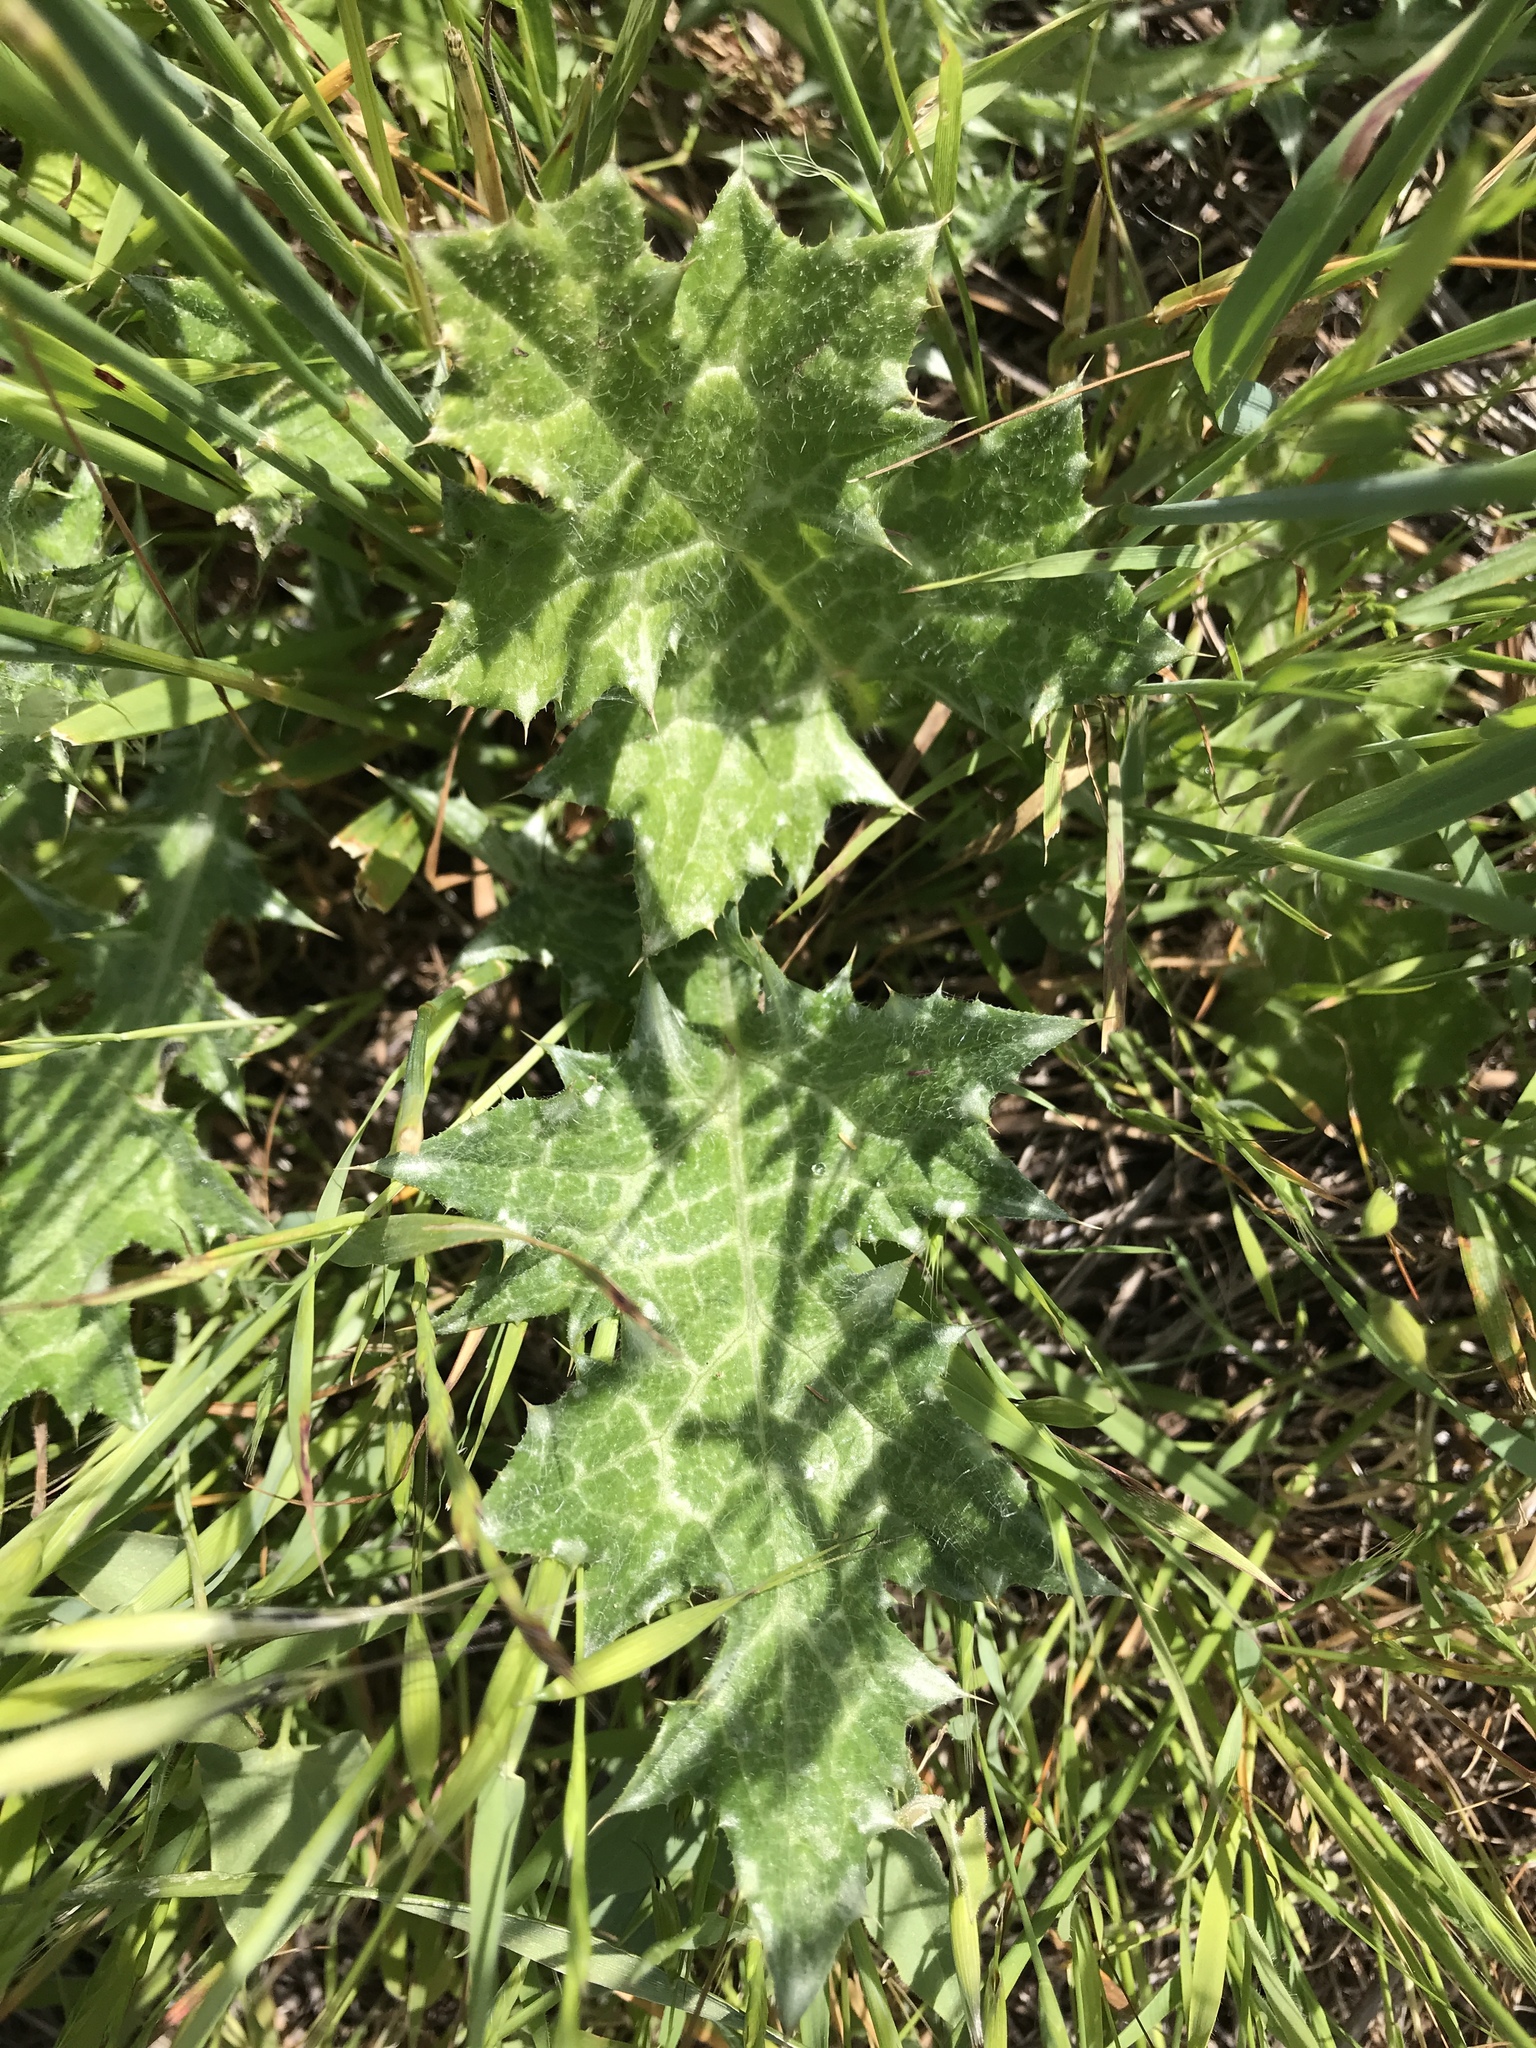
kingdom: Plantae
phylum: Tracheophyta
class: Magnoliopsida
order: Asterales
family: Asteraceae
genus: Carduus
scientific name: Carduus pycnocephalus
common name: Plymouth thistle
